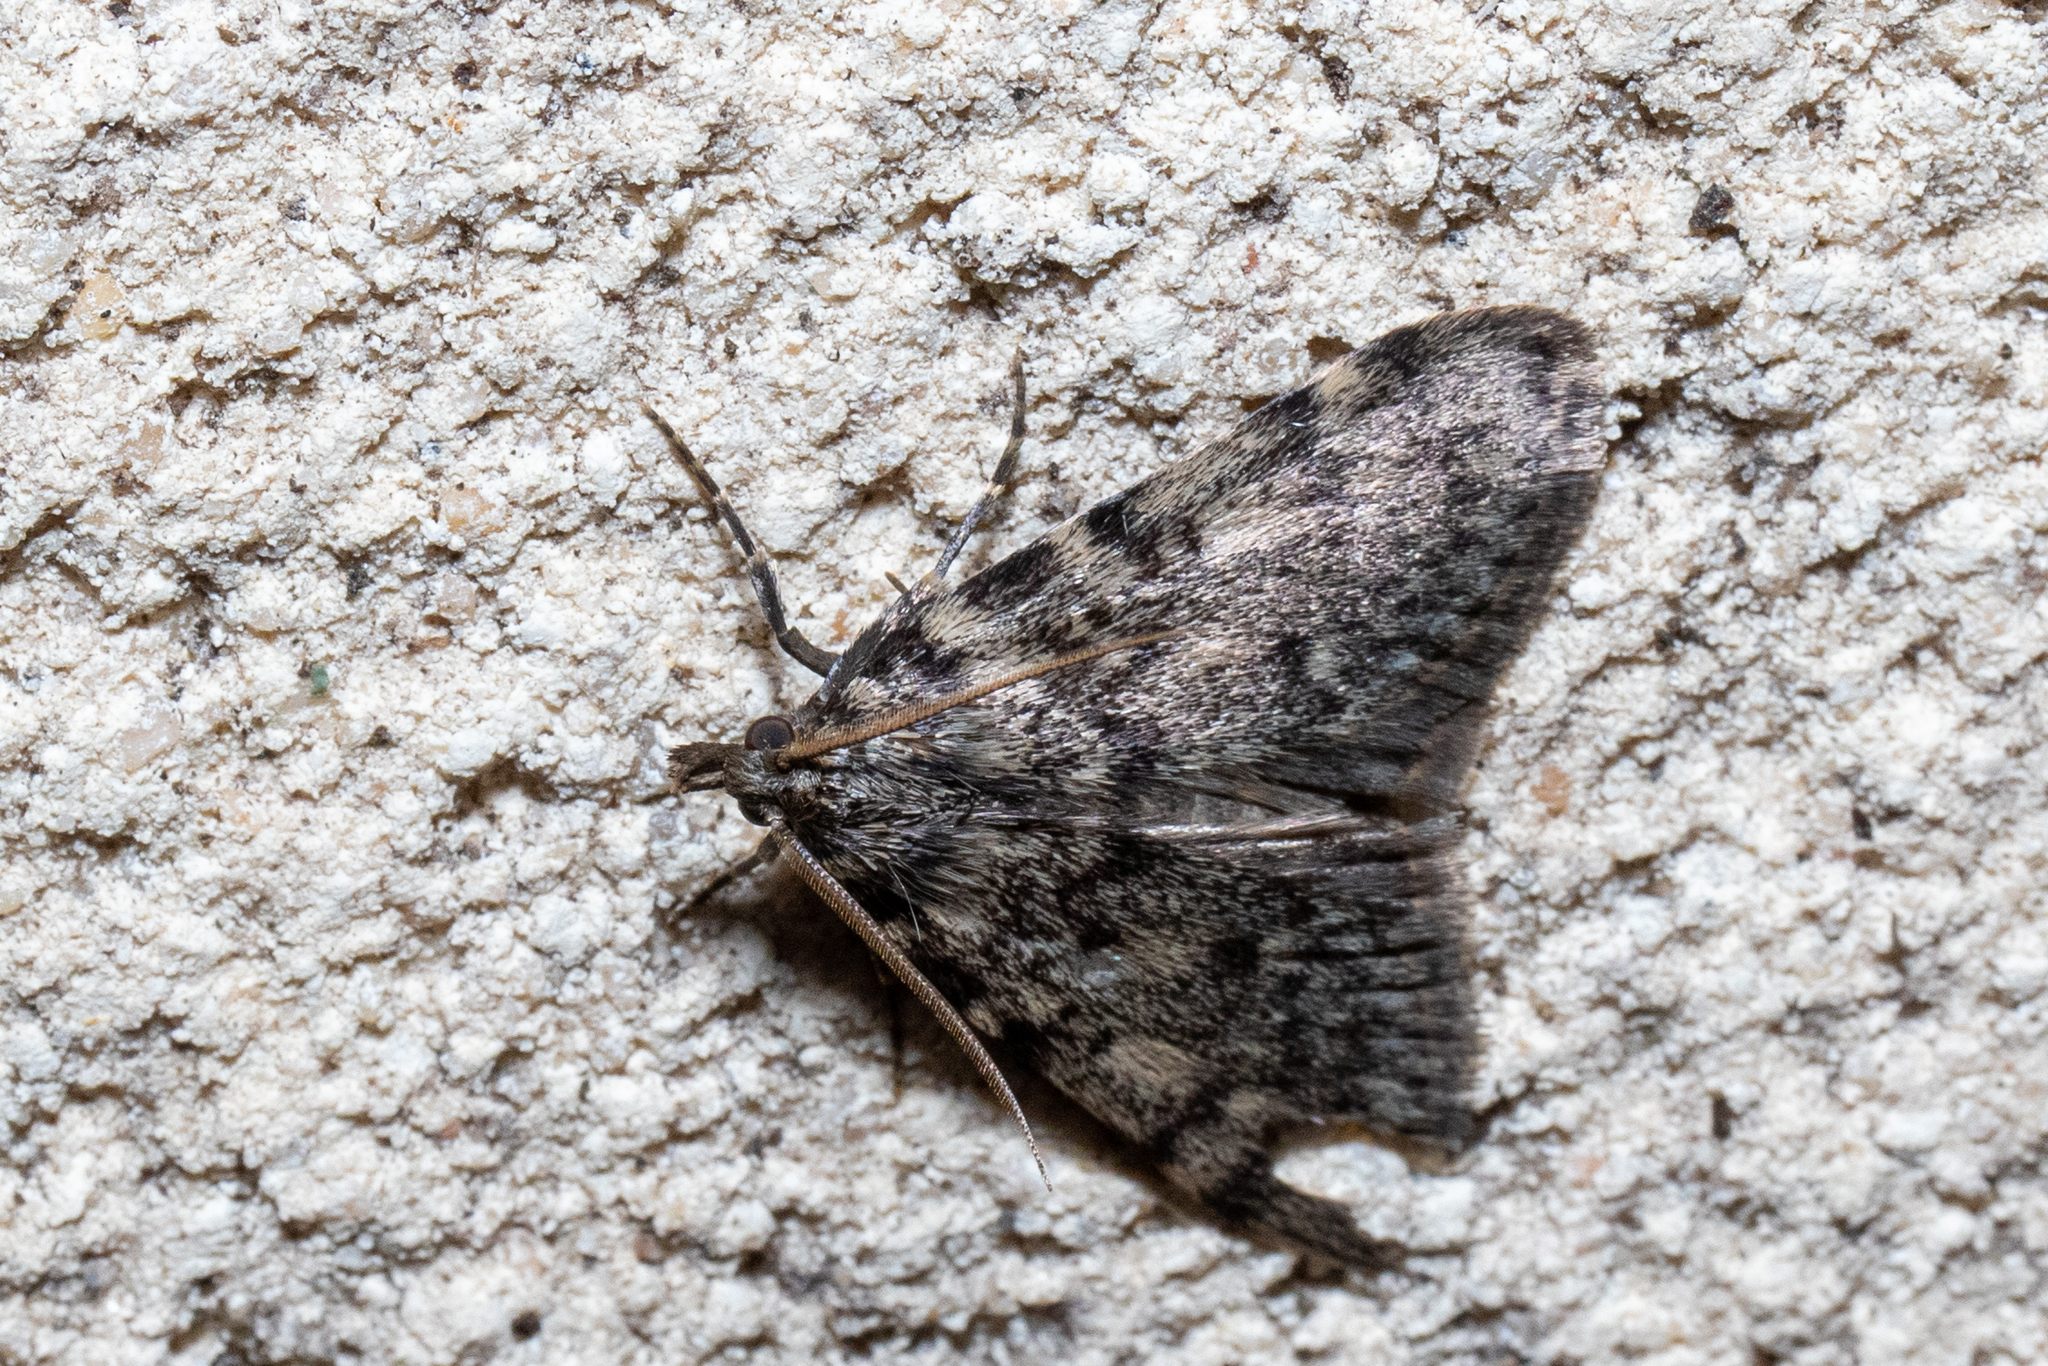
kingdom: Animalia
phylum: Arthropoda
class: Insecta
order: Lepidoptera
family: Pyralidae
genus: Aglossa
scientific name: Aglossa pinguinalis
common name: Large tabby
